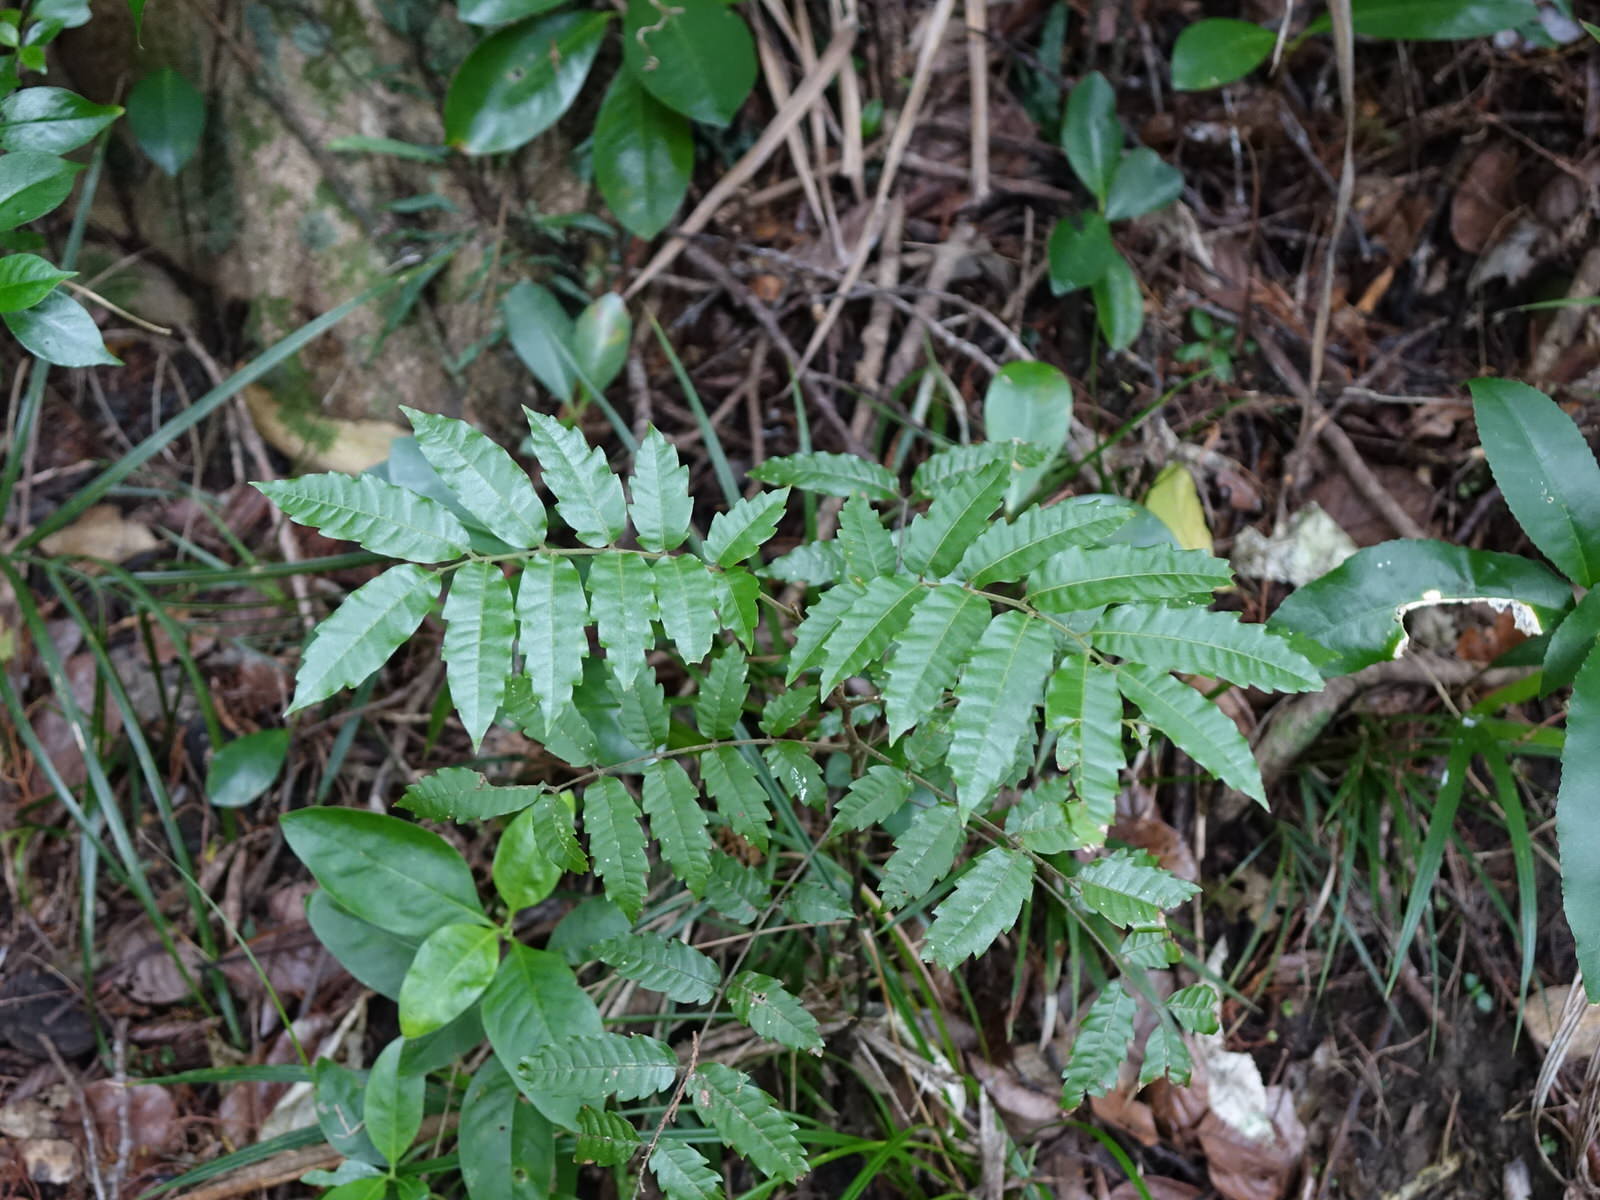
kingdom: Plantae
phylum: Tracheophyta
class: Magnoliopsida
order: Sapindales
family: Sapindaceae
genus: Alectryon
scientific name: Alectryon excelsus
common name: Three kings titoki
